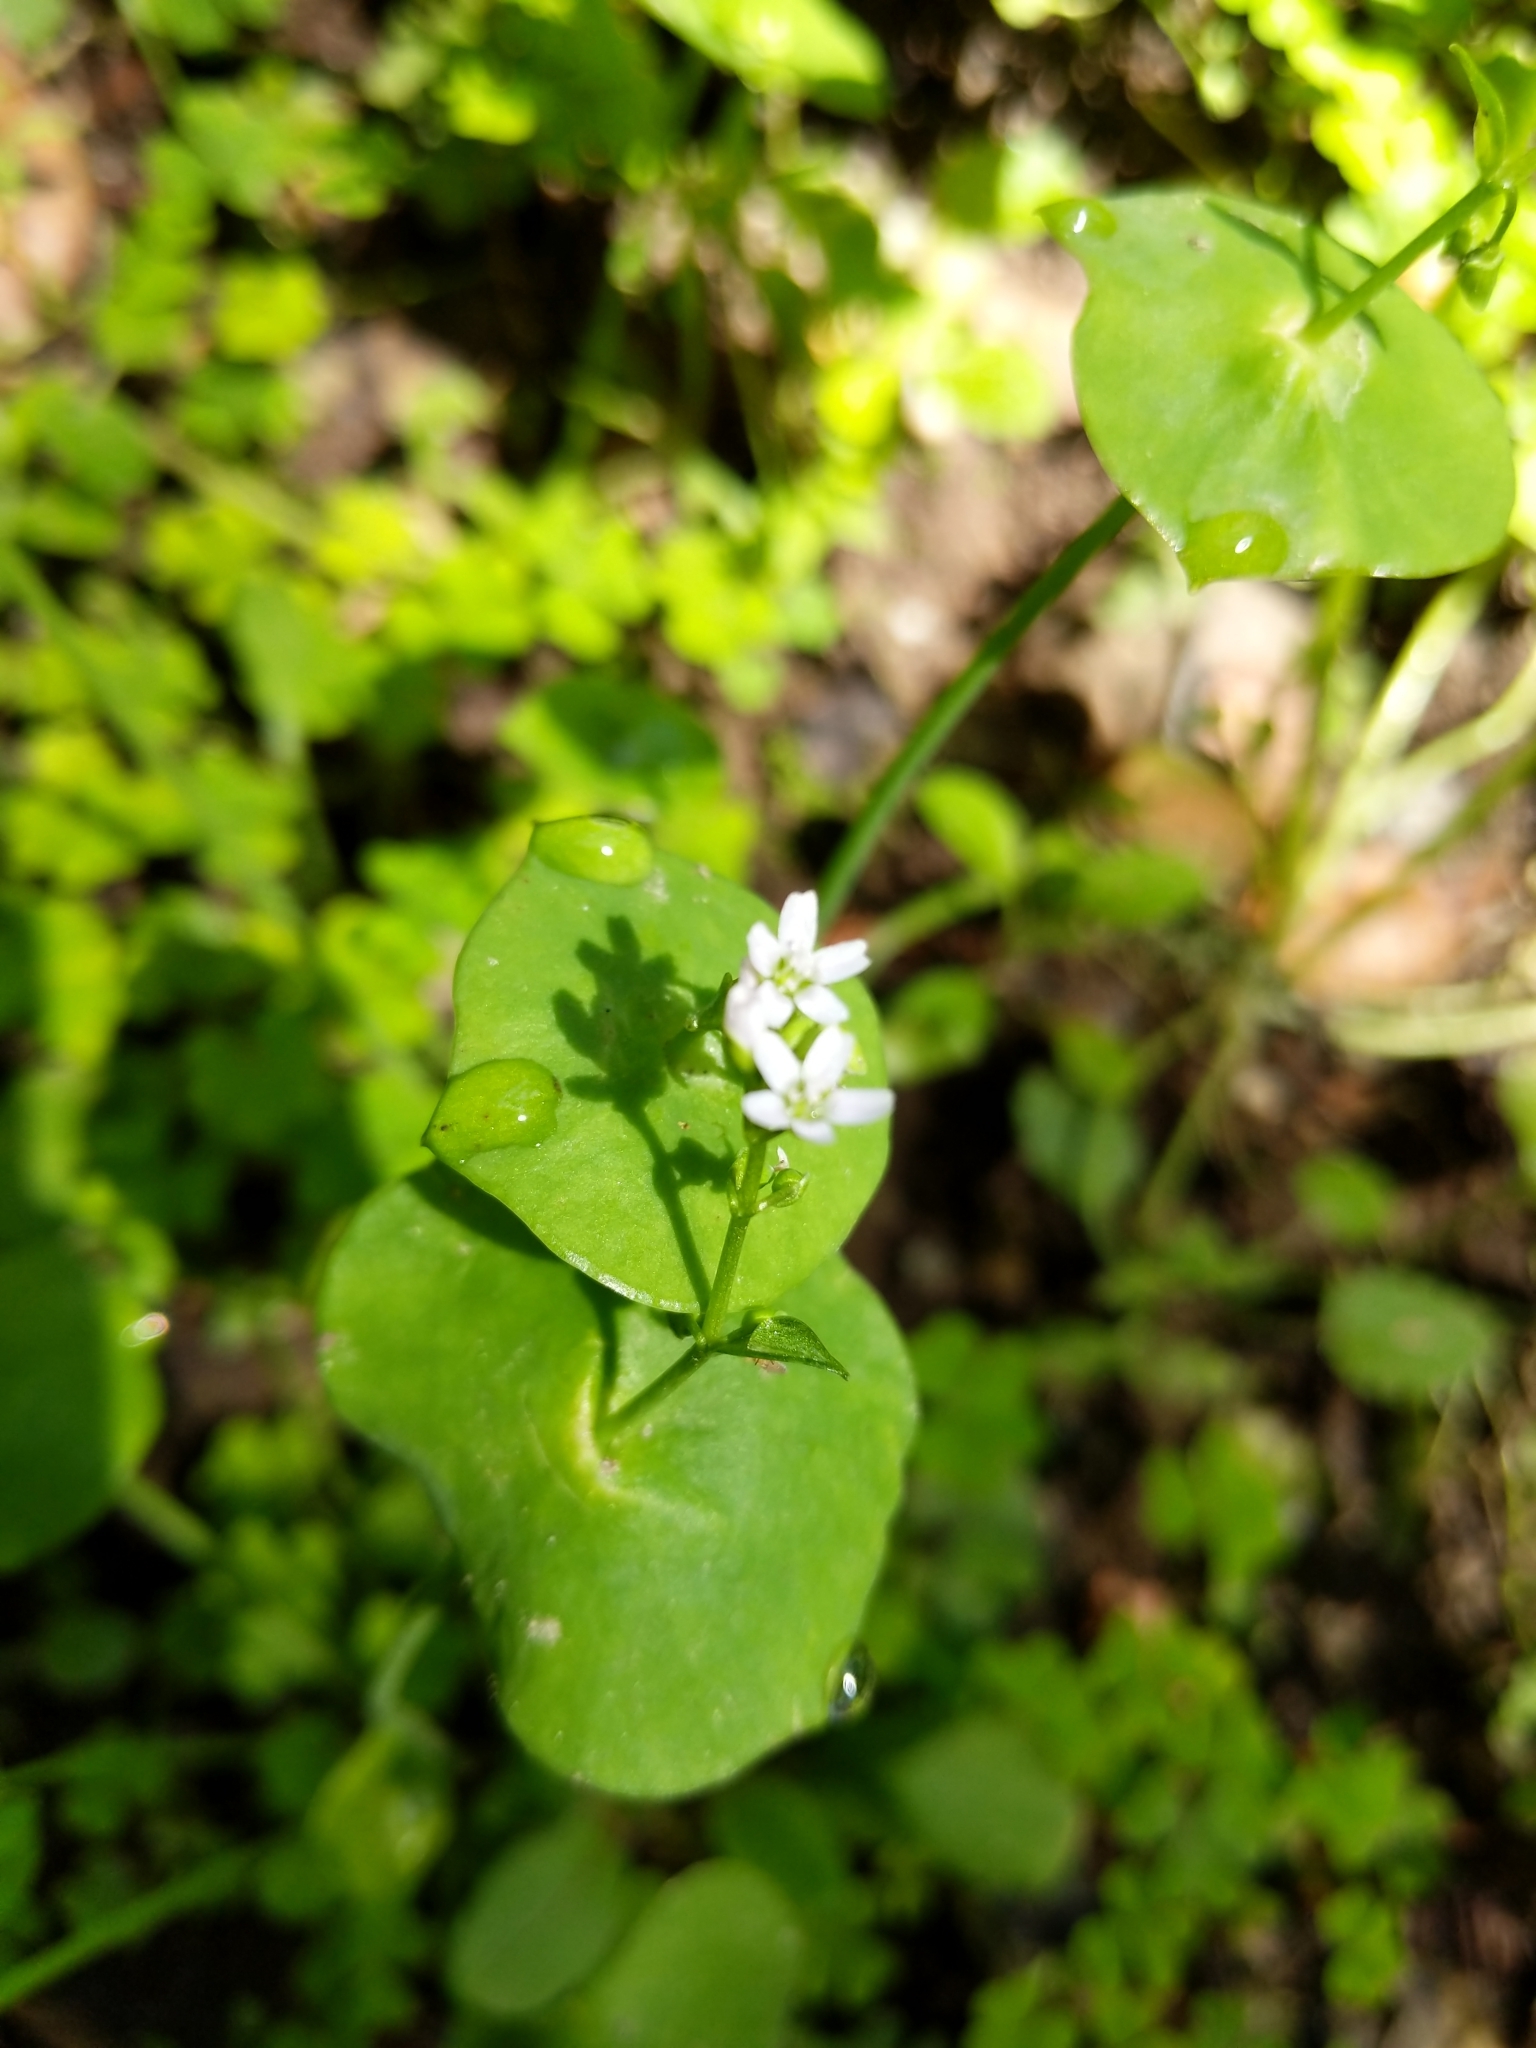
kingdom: Plantae
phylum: Tracheophyta
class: Magnoliopsida
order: Caryophyllales
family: Montiaceae
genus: Claytonia
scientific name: Claytonia perfoliata
